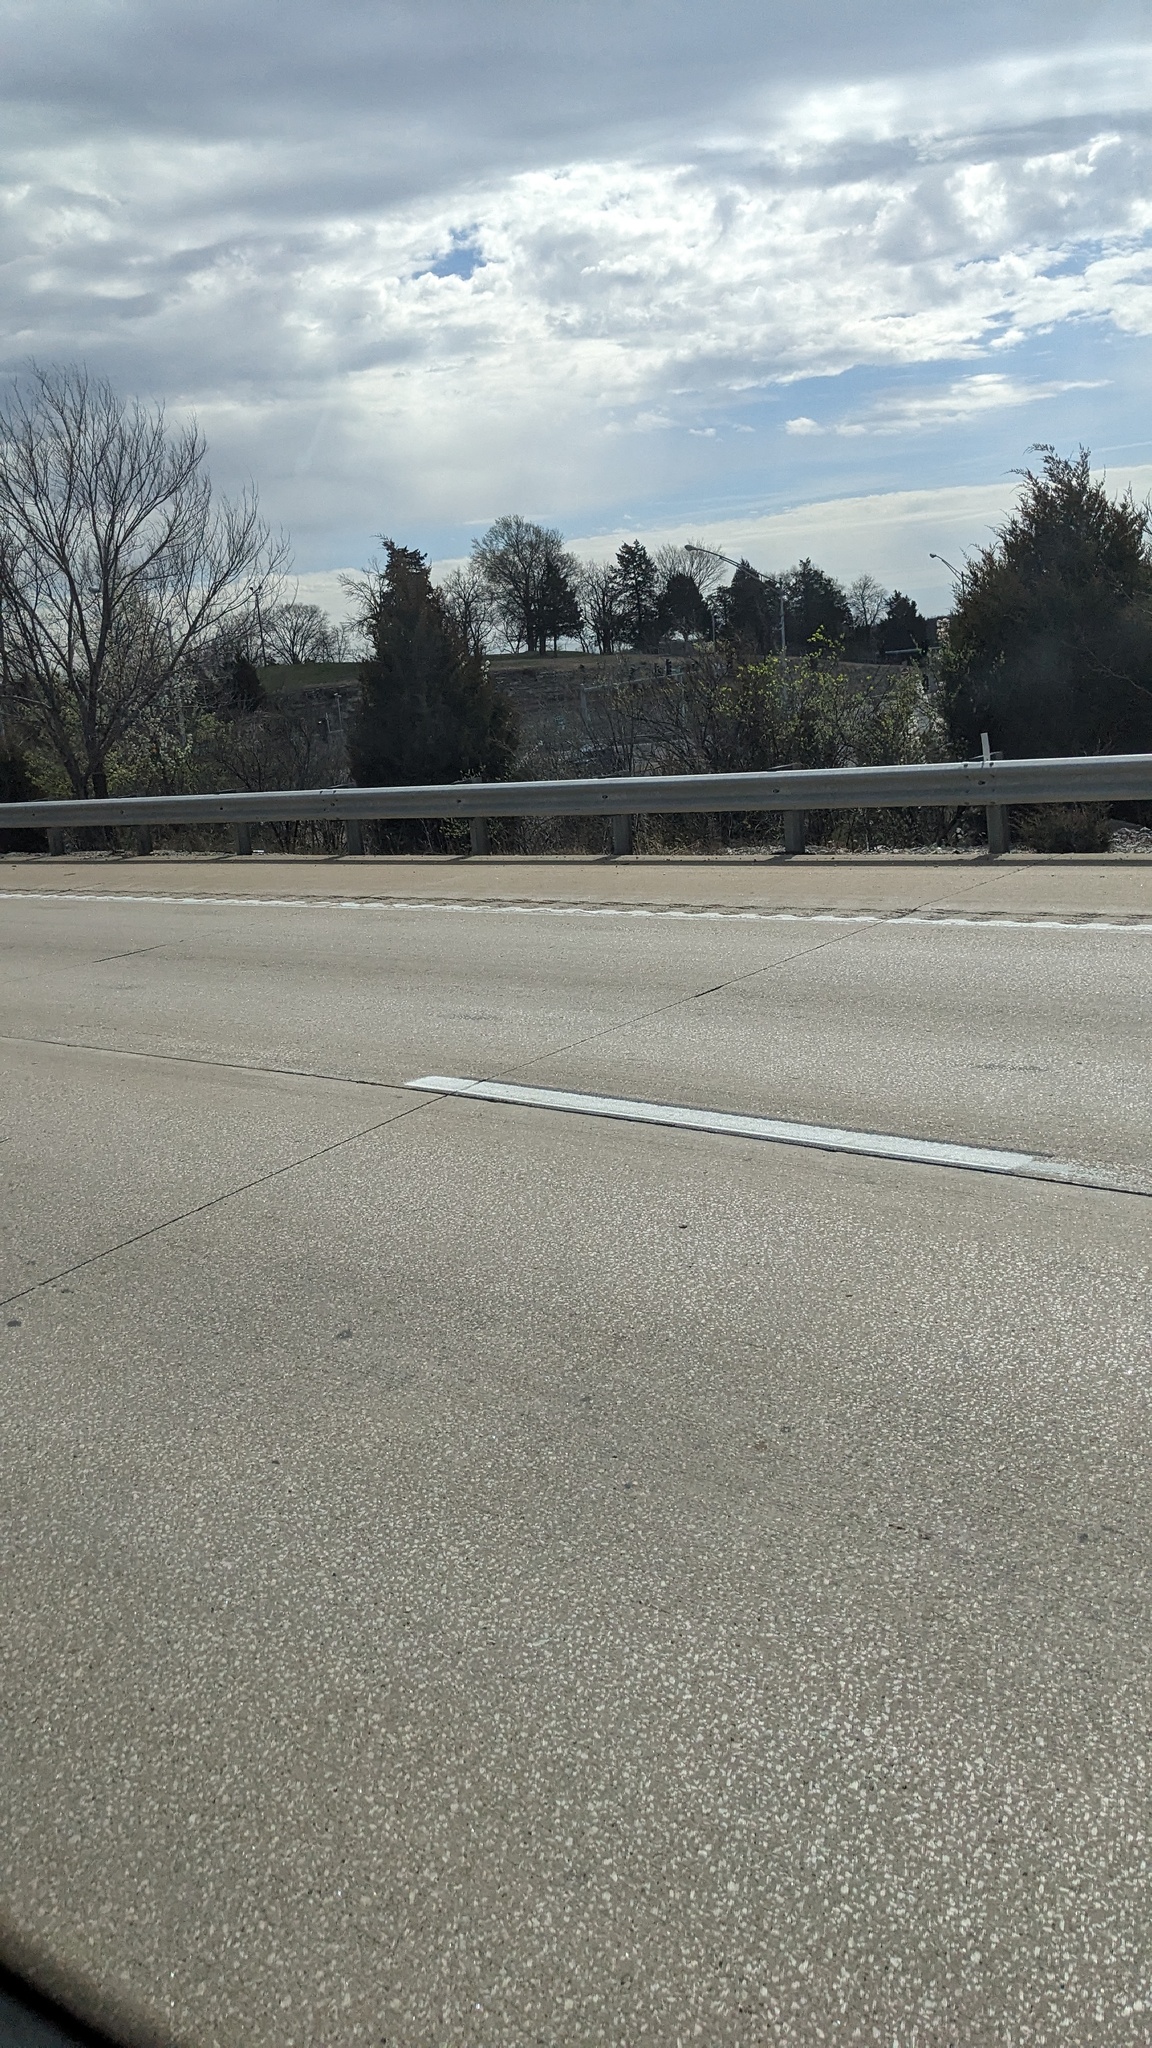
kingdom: Plantae
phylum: Tracheophyta
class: Pinopsida
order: Pinales
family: Cupressaceae
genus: Juniperus
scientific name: Juniperus virginiana
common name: Red juniper
